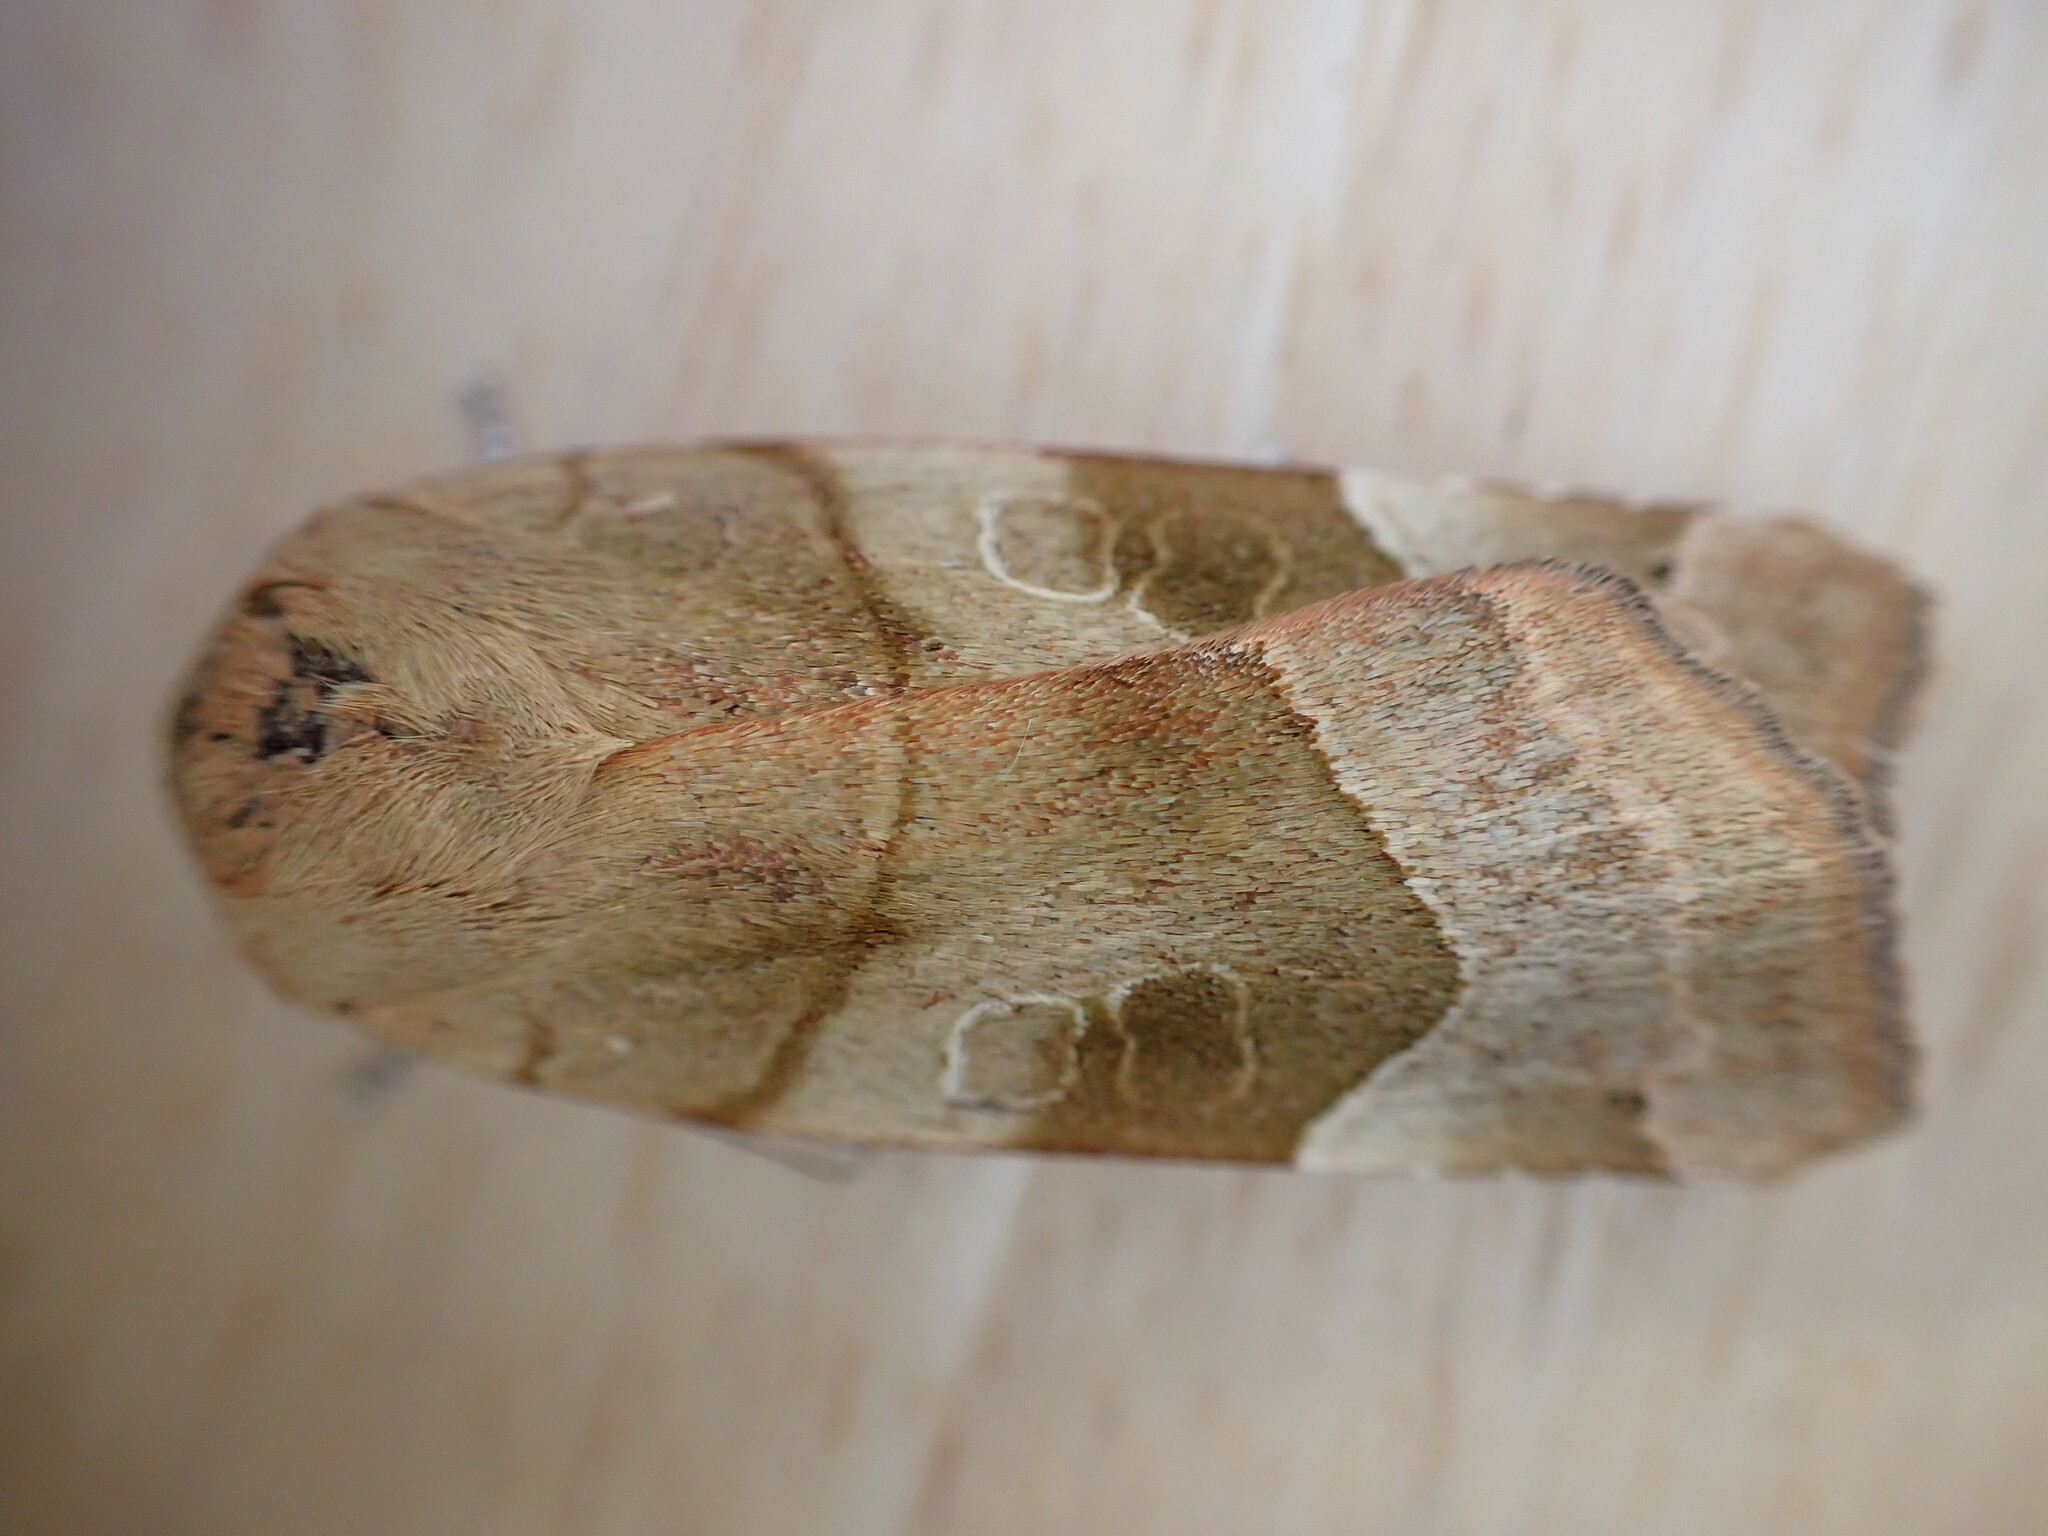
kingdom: Animalia
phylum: Arthropoda
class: Insecta
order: Lepidoptera
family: Noctuidae
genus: Noctua
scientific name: Noctua fimbriata
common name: Broad-bordered yellow underwing
